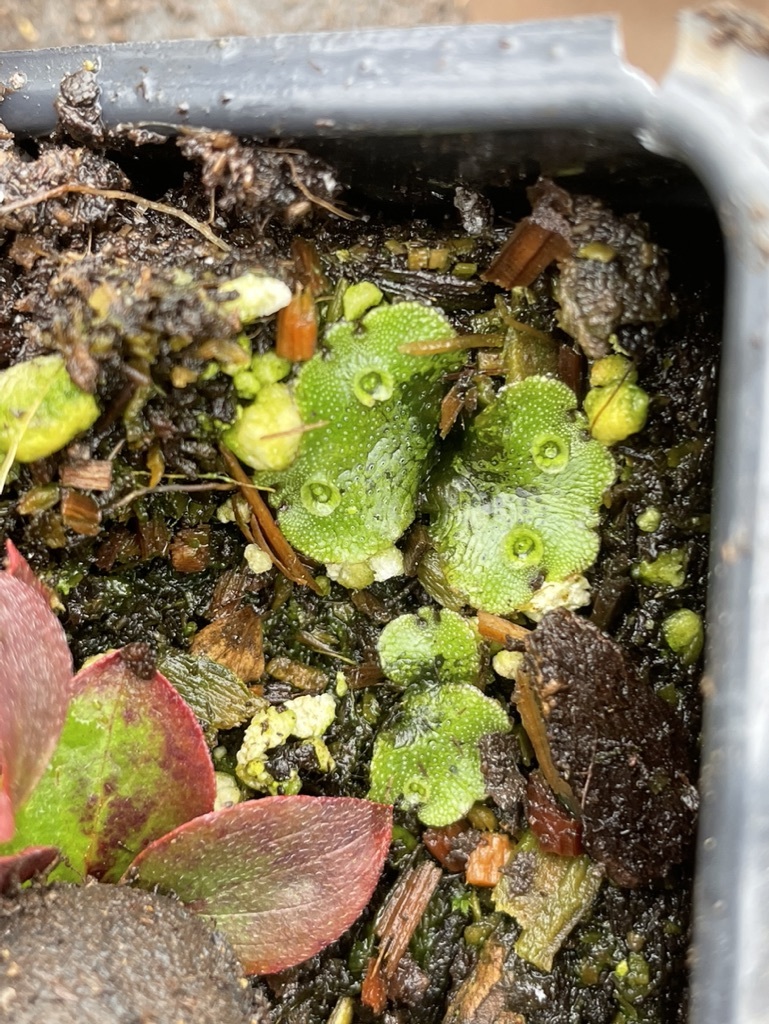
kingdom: Plantae
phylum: Marchantiophyta
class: Marchantiopsida
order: Marchantiales
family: Marchantiaceae
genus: Marchantia
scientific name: Marchantia polymorpha
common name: Common liverwort
